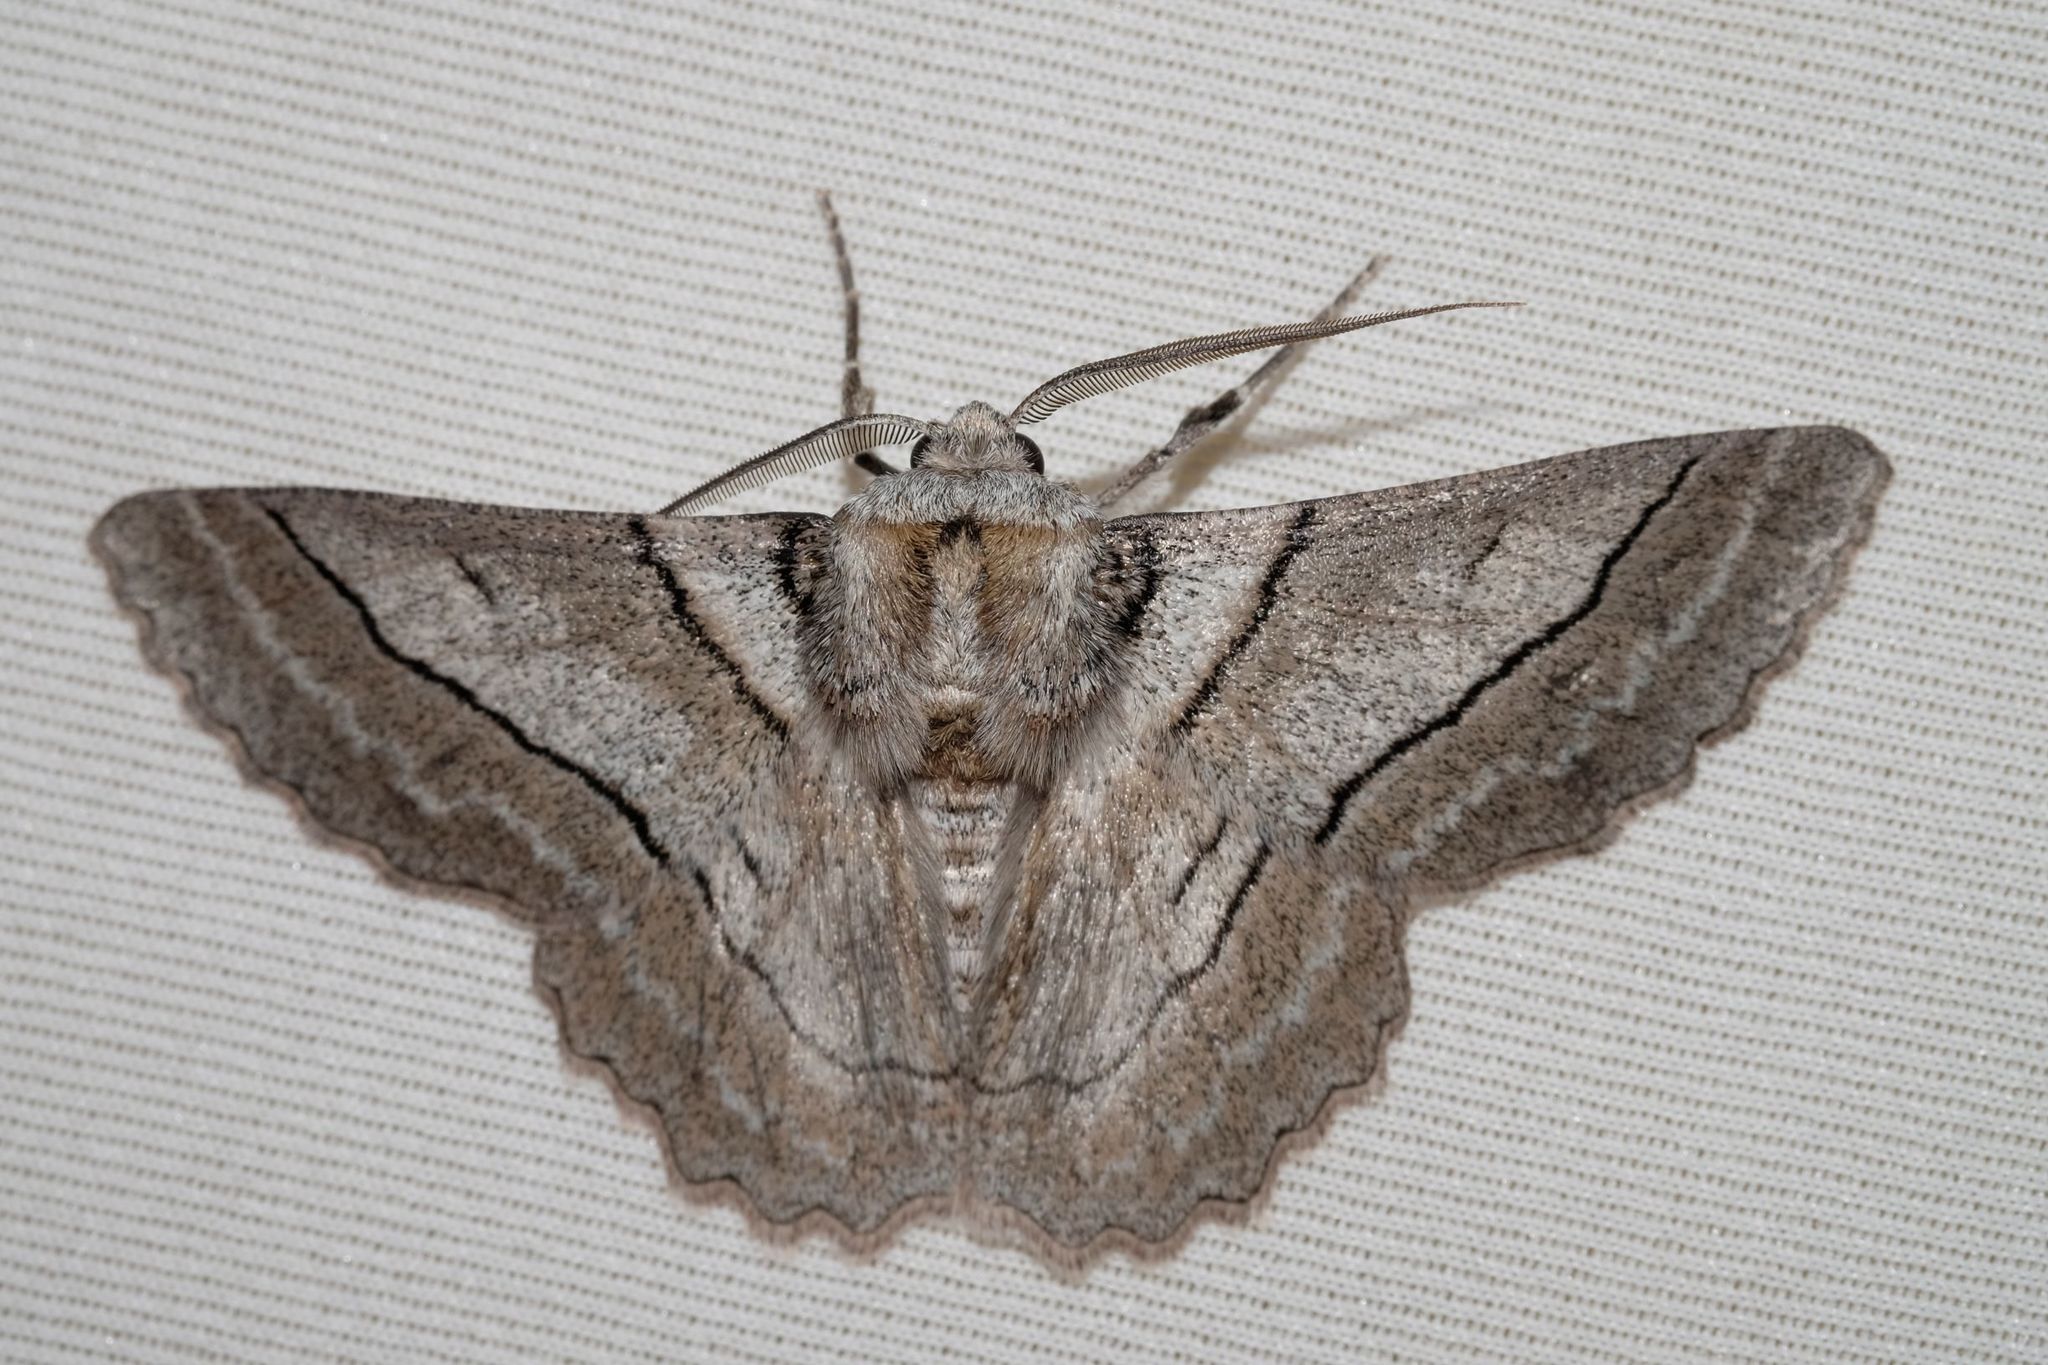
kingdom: Animalia
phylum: Arthropoda
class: Insecta
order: Lepidoptera
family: Geometridae
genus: Hypobapta
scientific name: Hypobapta tachyhalotaria
